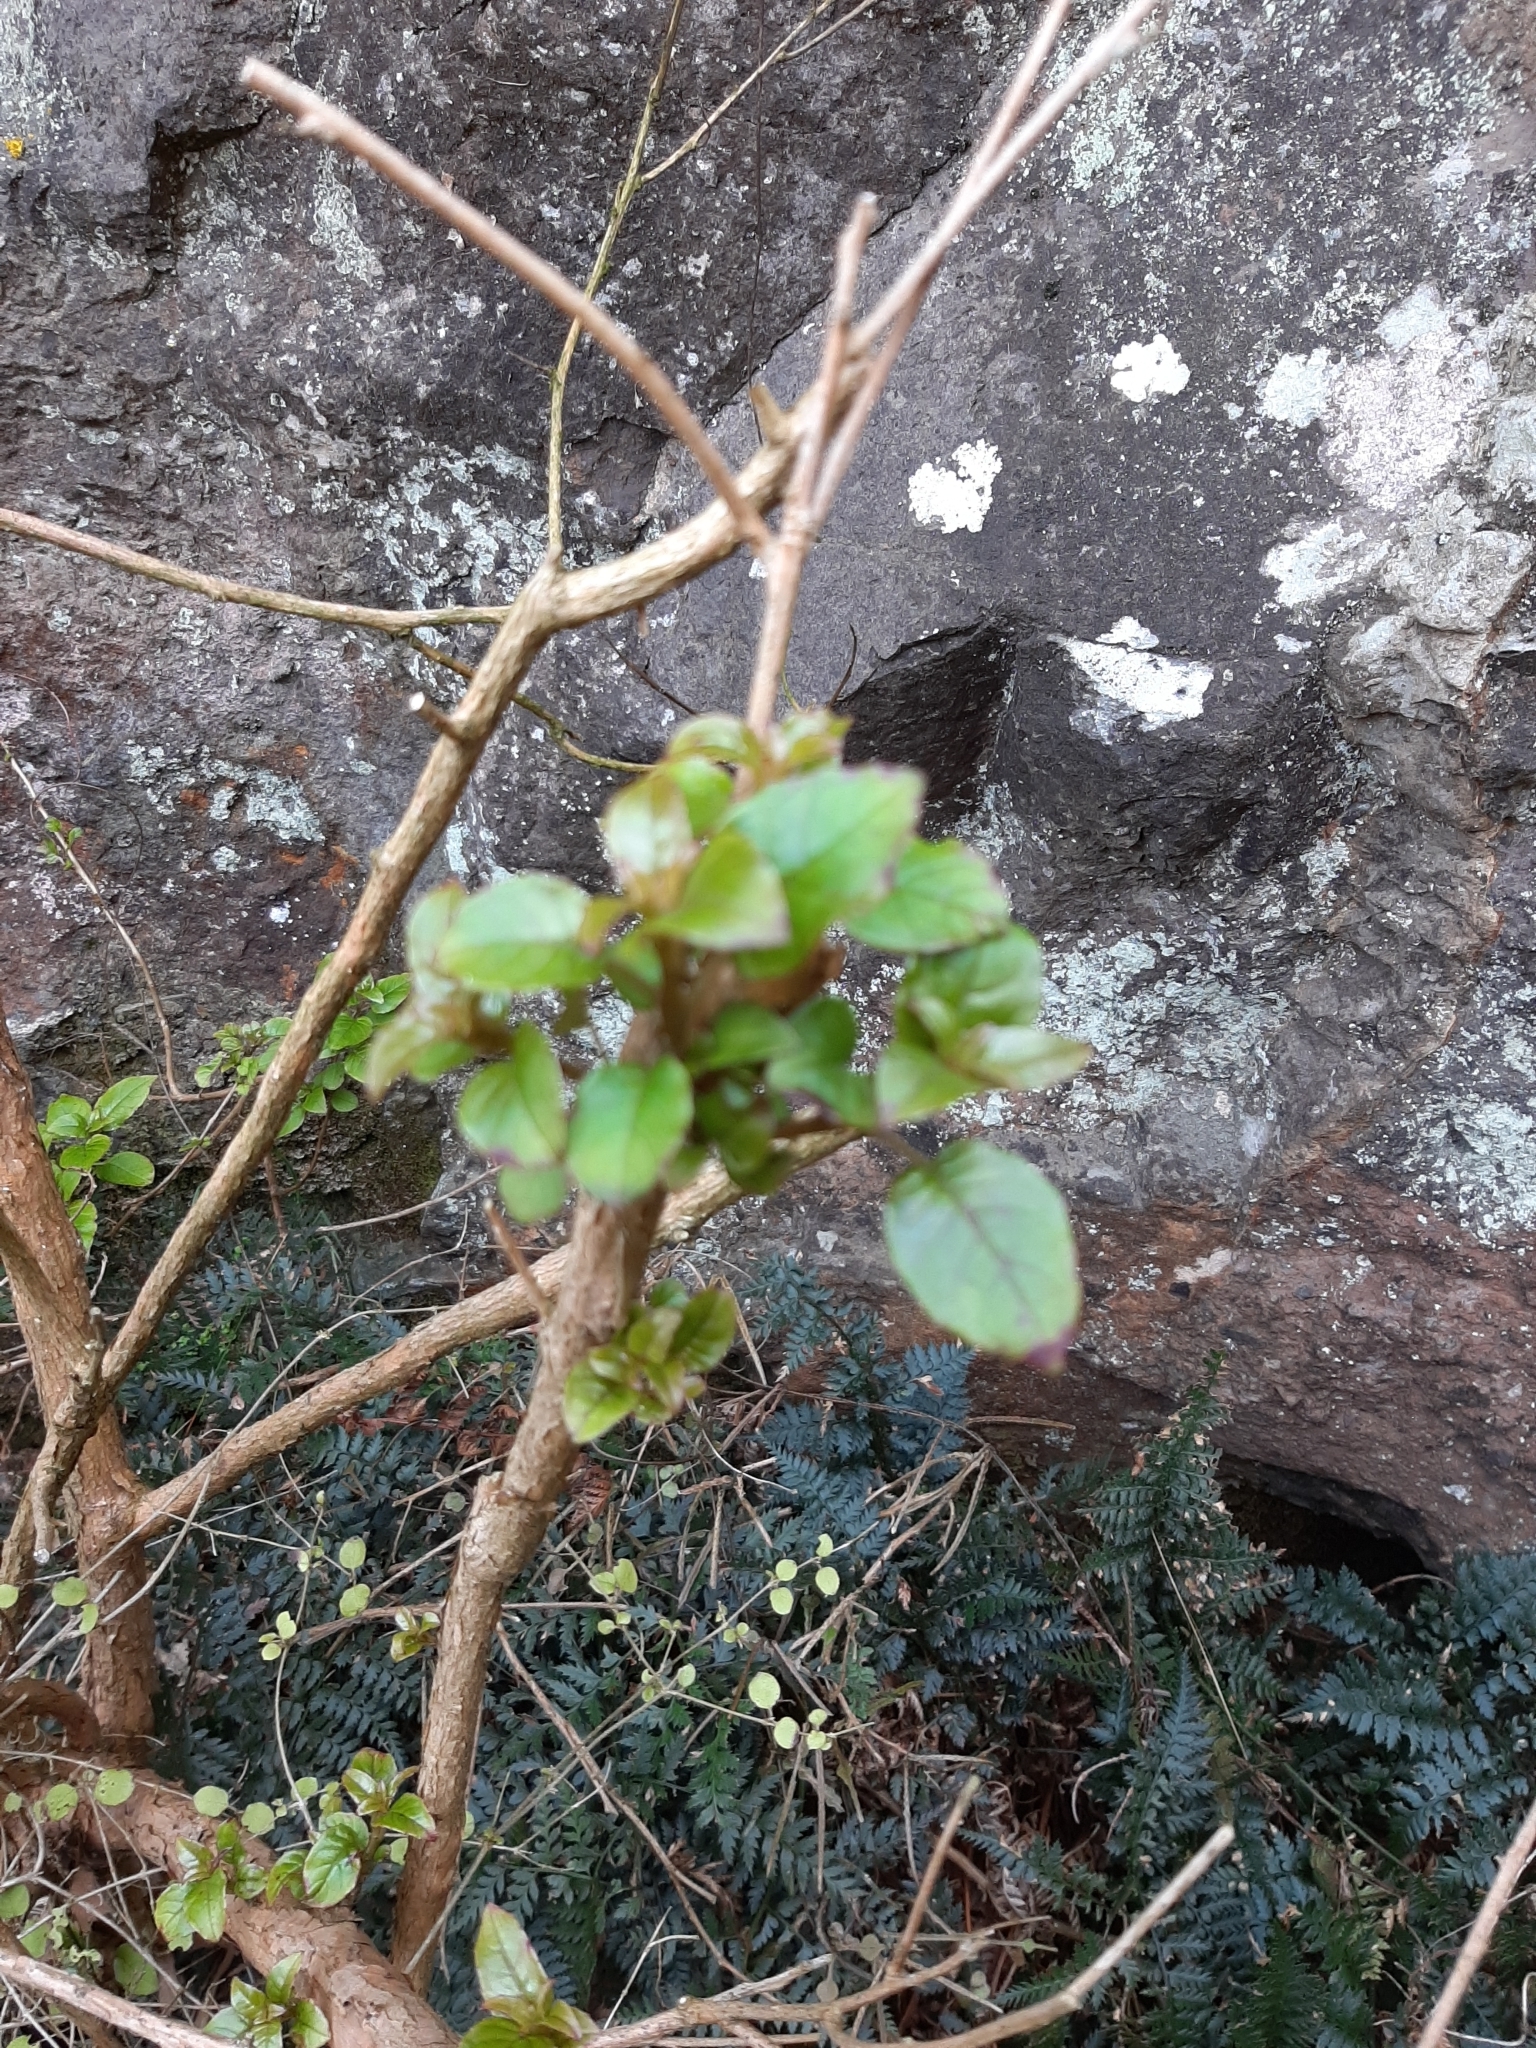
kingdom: Plantae
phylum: Tracheophyta
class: Magnoliopsida
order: Myrtales
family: Onagraceae
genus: Fuchsia
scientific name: Fuchsia colensoi
